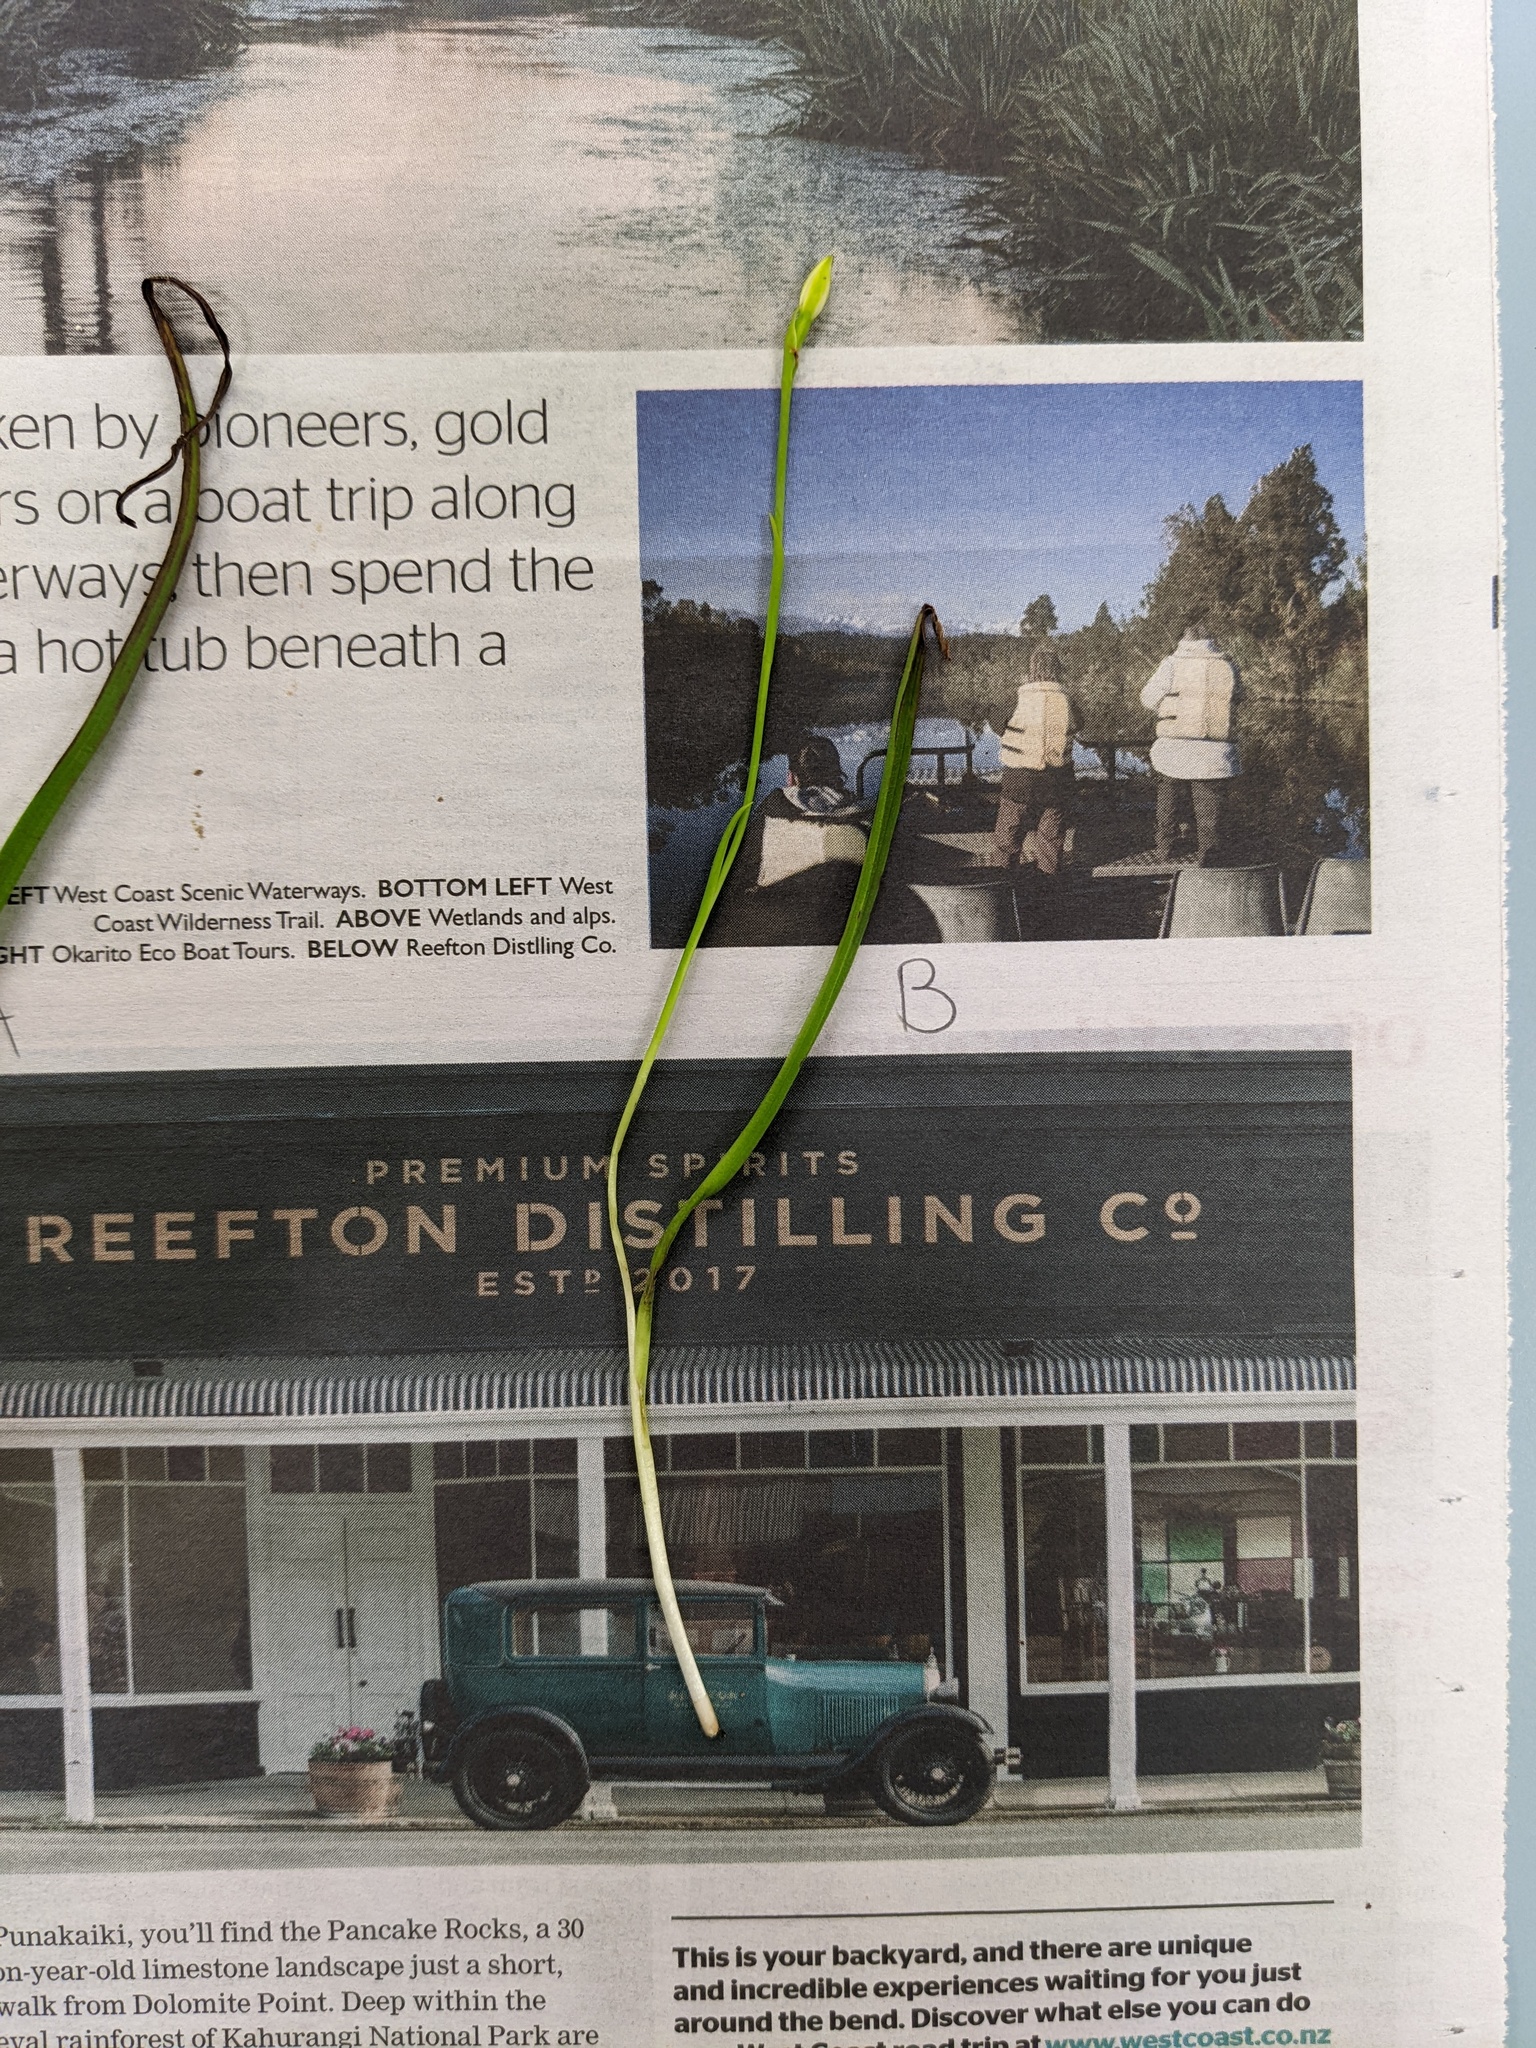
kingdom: Plantae
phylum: Tracheophyta
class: Liliopsida
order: Asparagales
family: Orchidaceae
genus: Thelymitra
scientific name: Thelymitra longifolia
